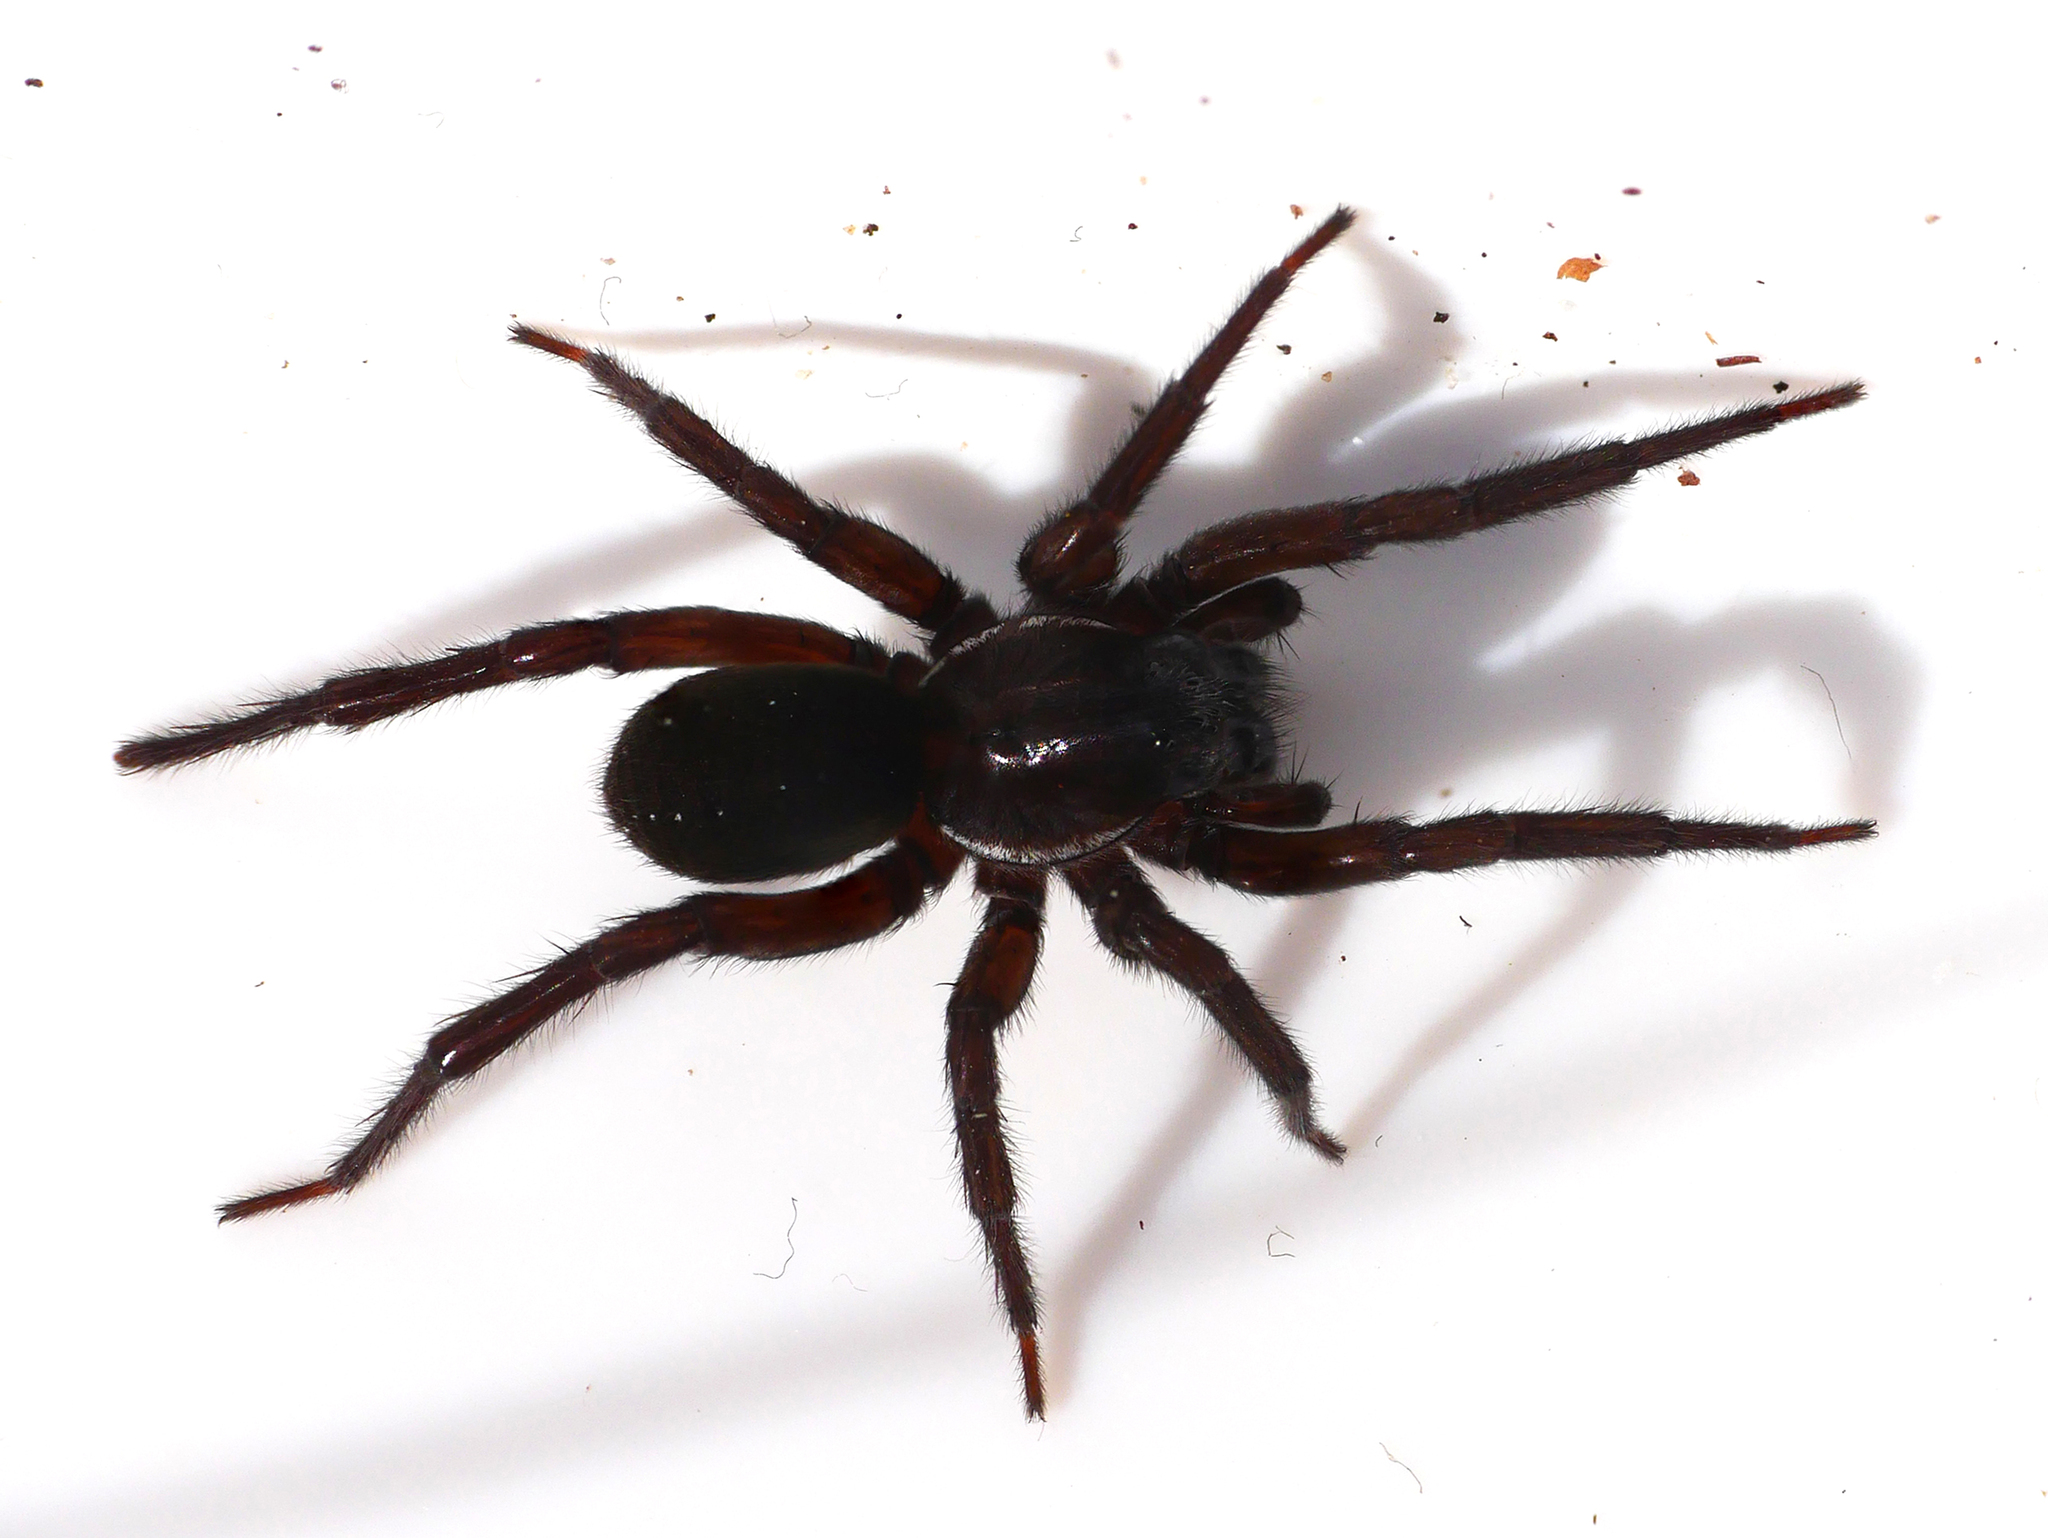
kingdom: Animalia
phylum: Arthropoda
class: Arachnida
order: Araneae
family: Lycosidae
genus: Pirata
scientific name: Pirata piscatorius
